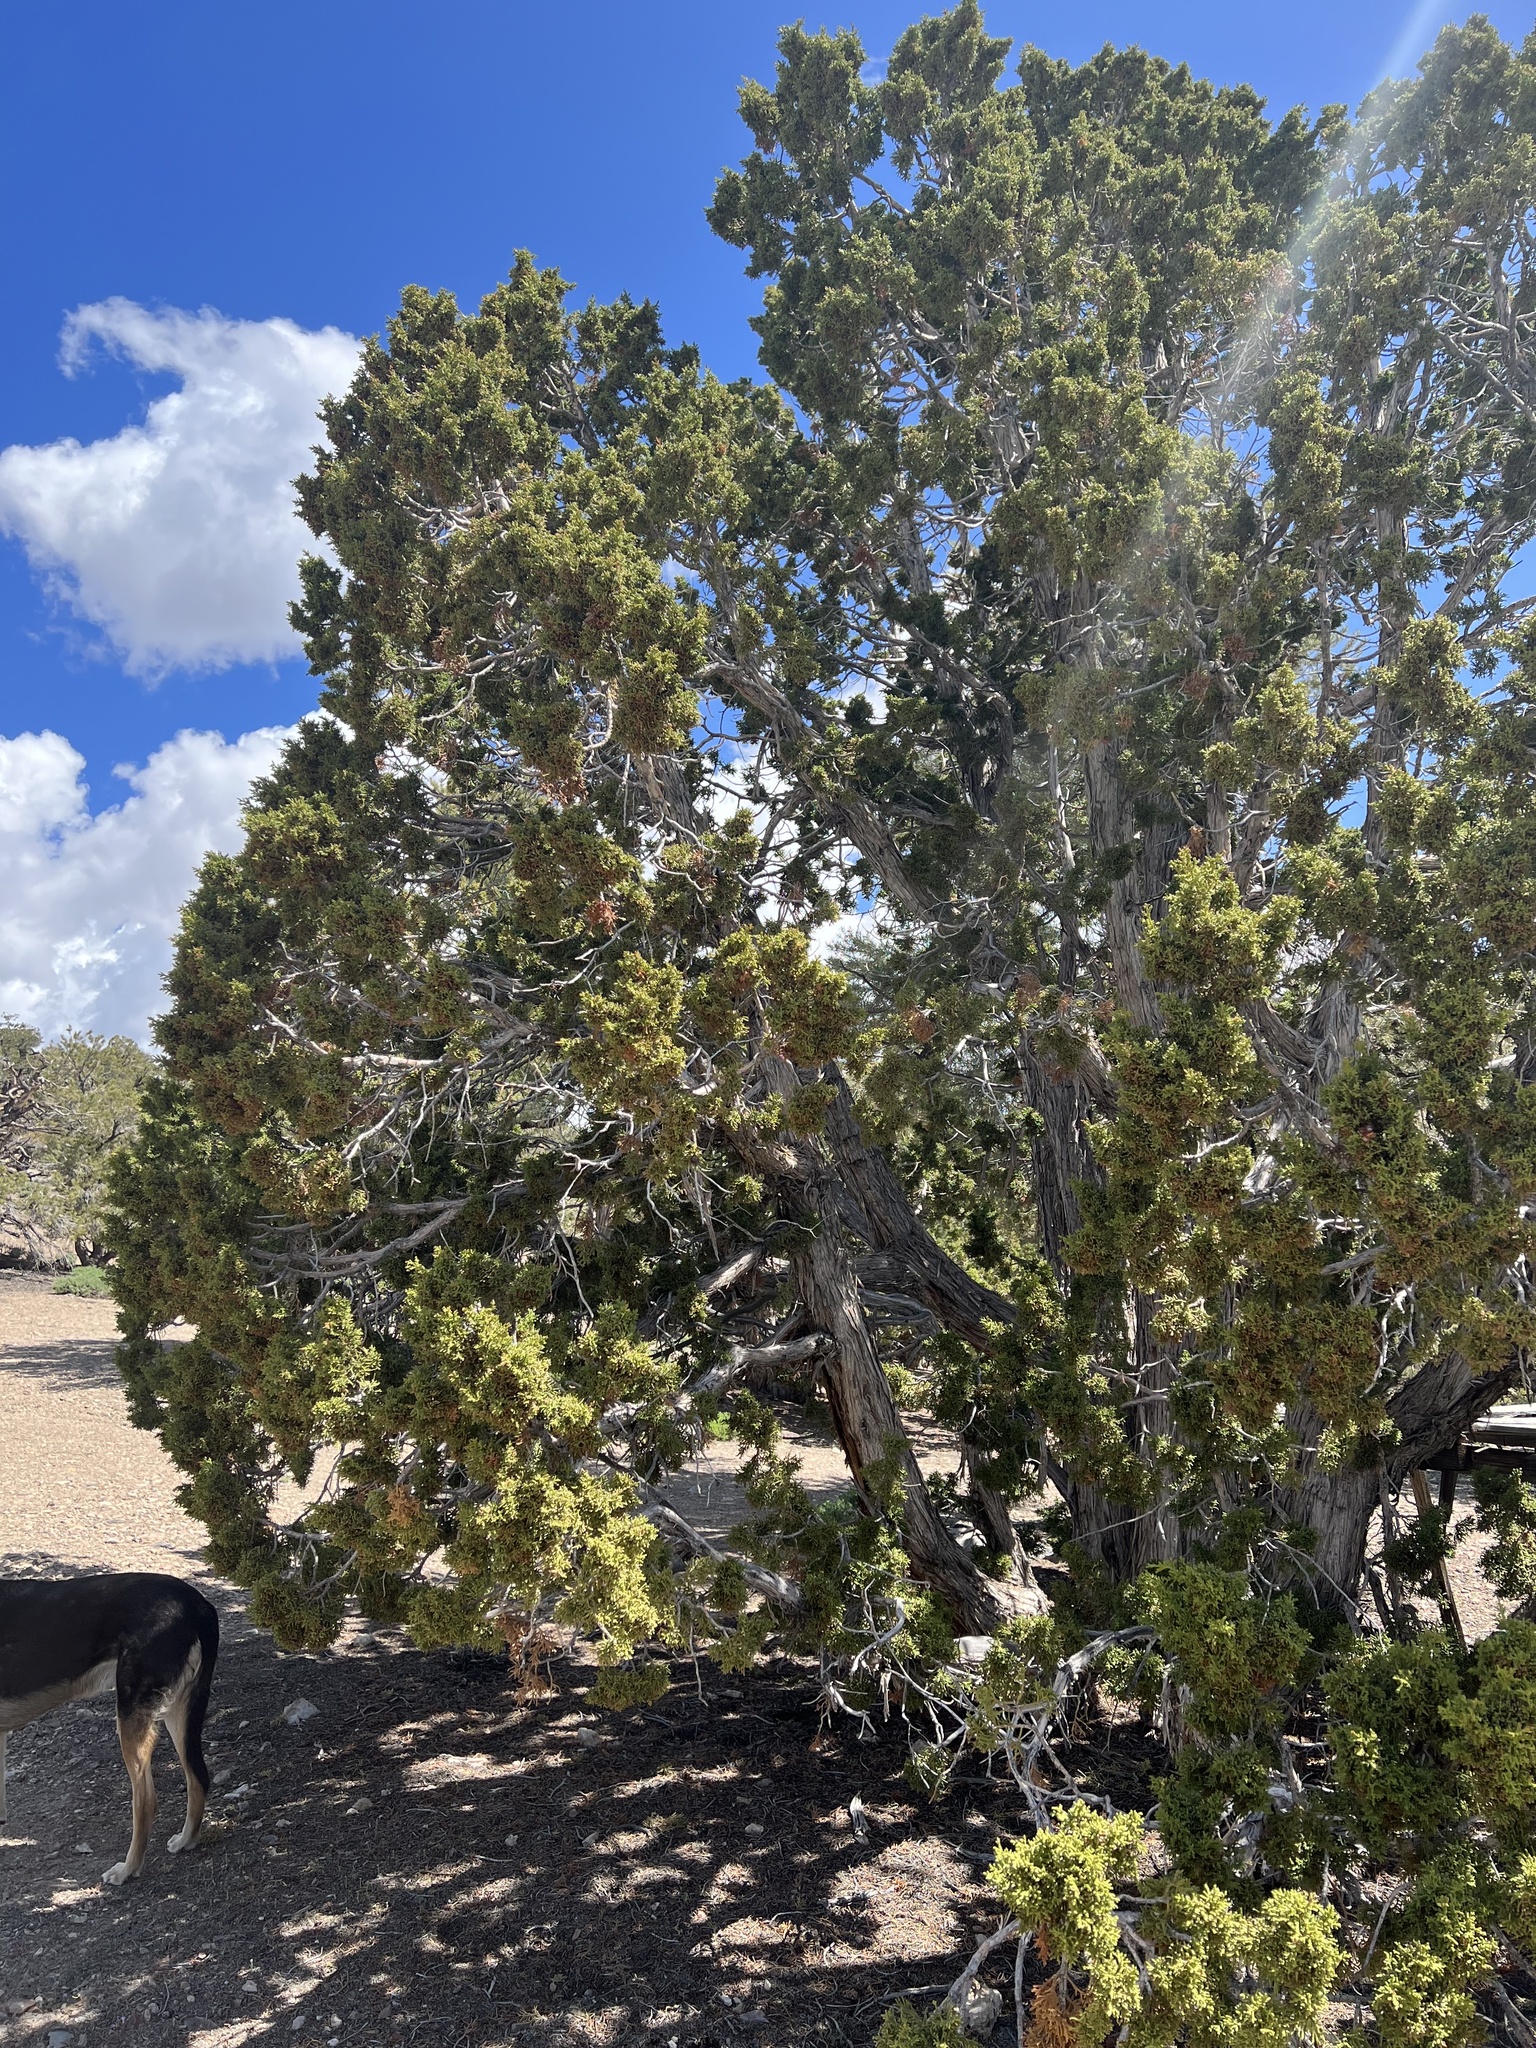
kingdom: Plantae
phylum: Tracheophyta
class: Pinopsida
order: Pinales
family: Cupressaceae
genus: Juniperus
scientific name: Juniperus osteosperma
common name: Utah juniper
